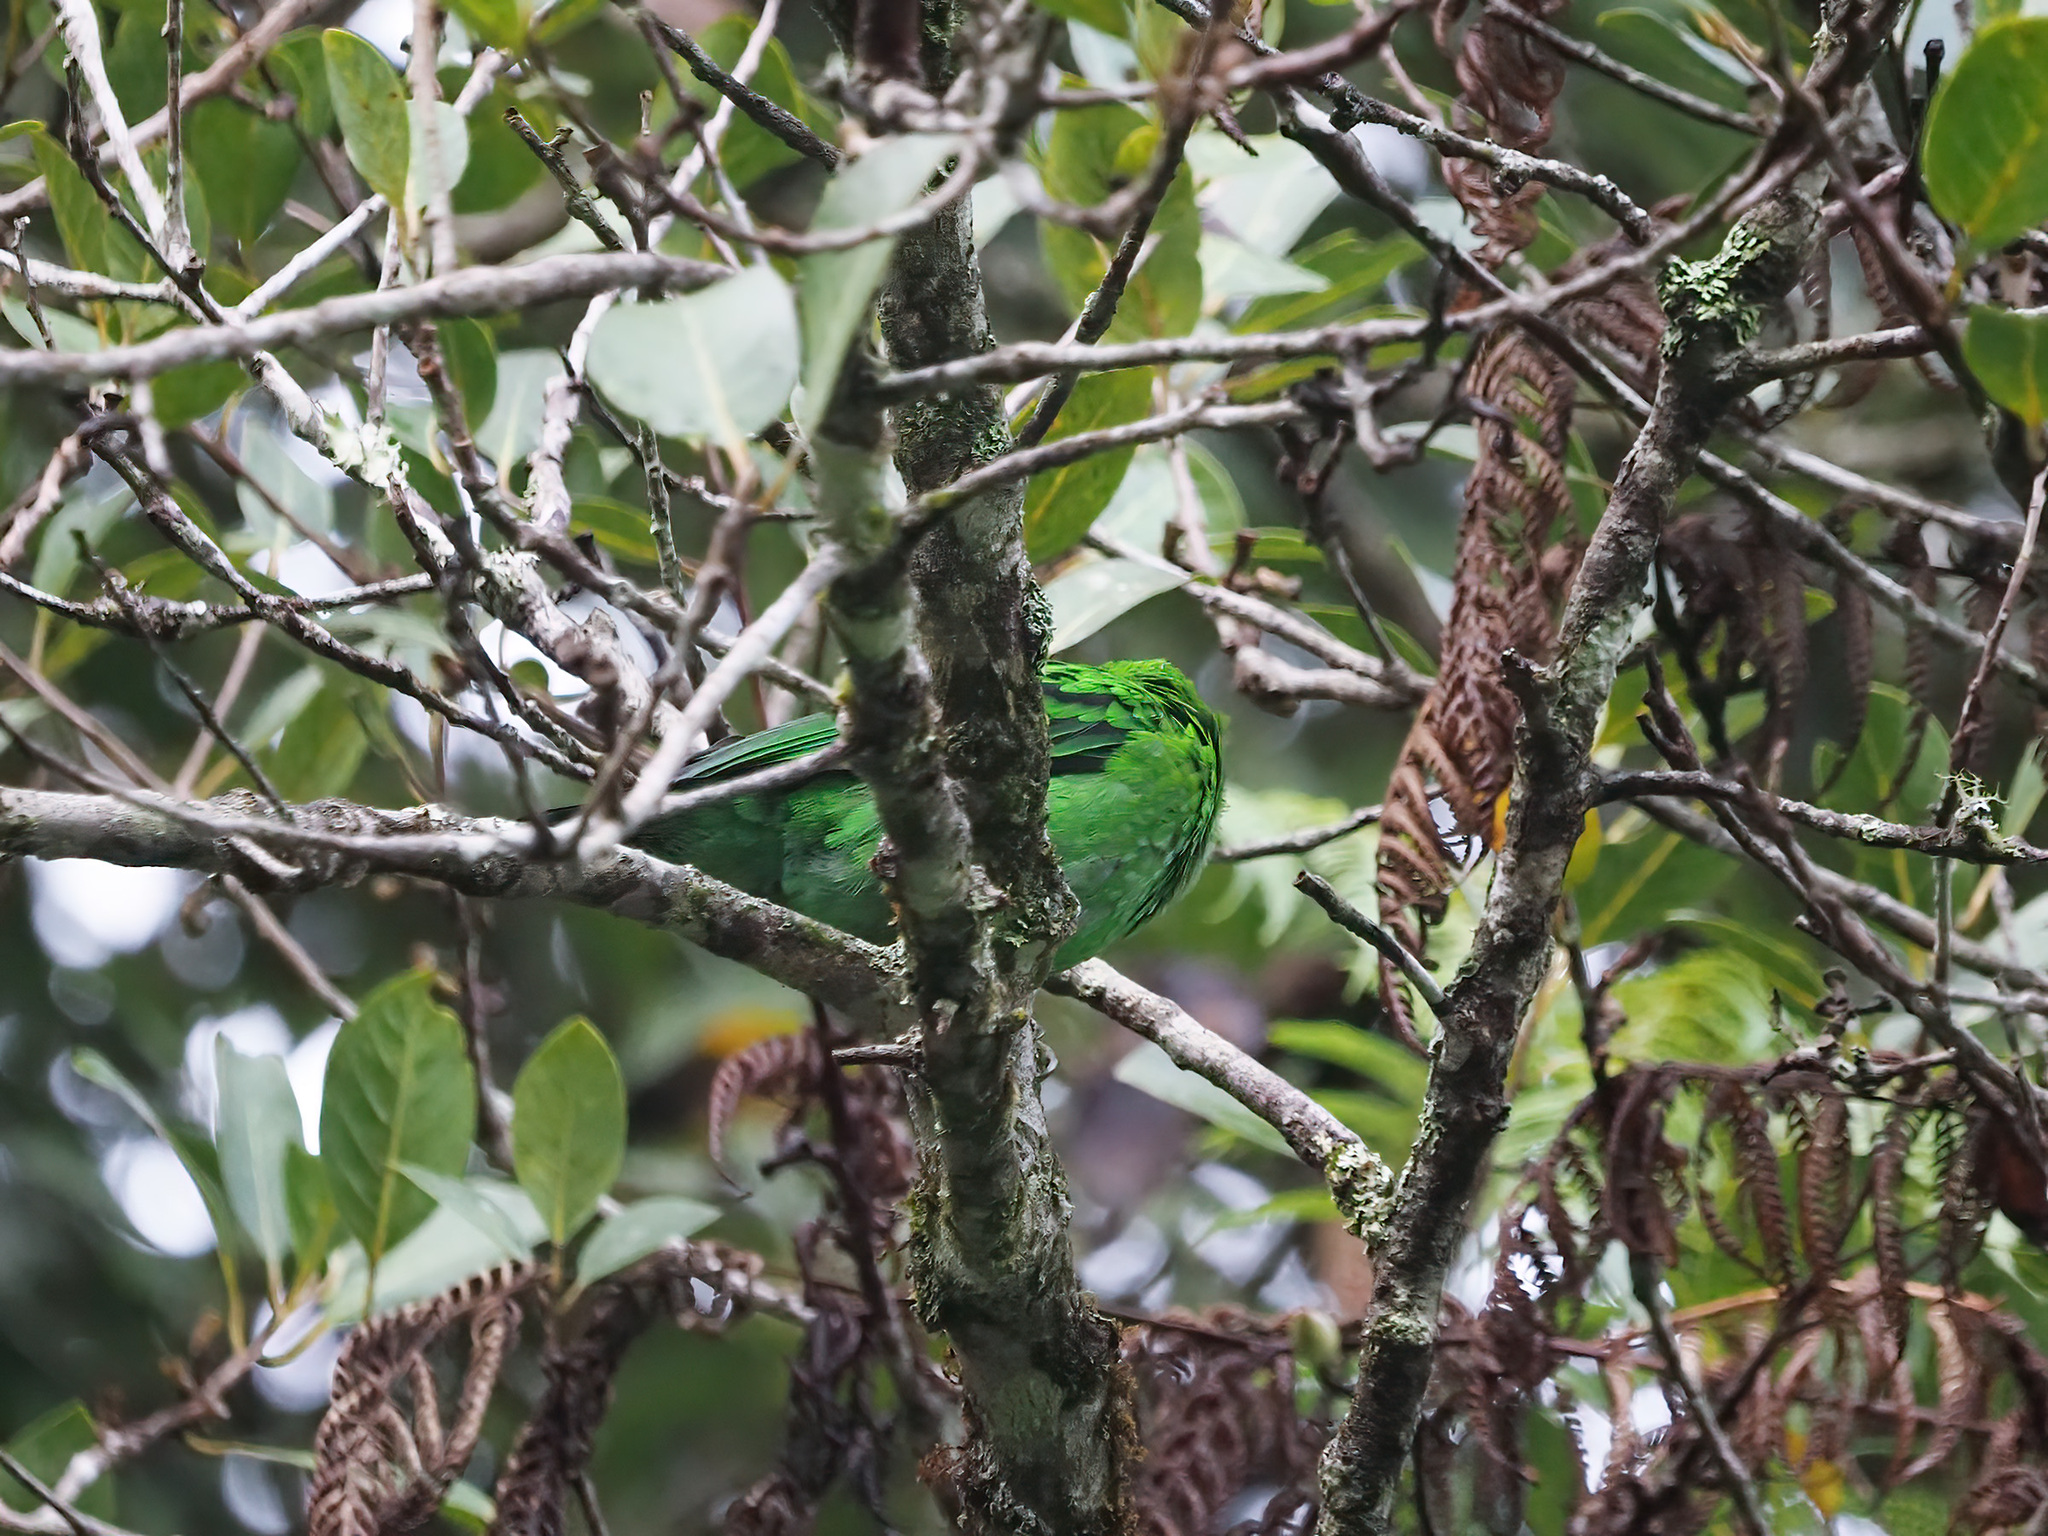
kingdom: Animalia
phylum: Chordata
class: Aves
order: Passeriformes
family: Eurylaimidae
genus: Calyptomena
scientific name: Calyptomena whiteheadi
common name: Whitehead's broadbill
